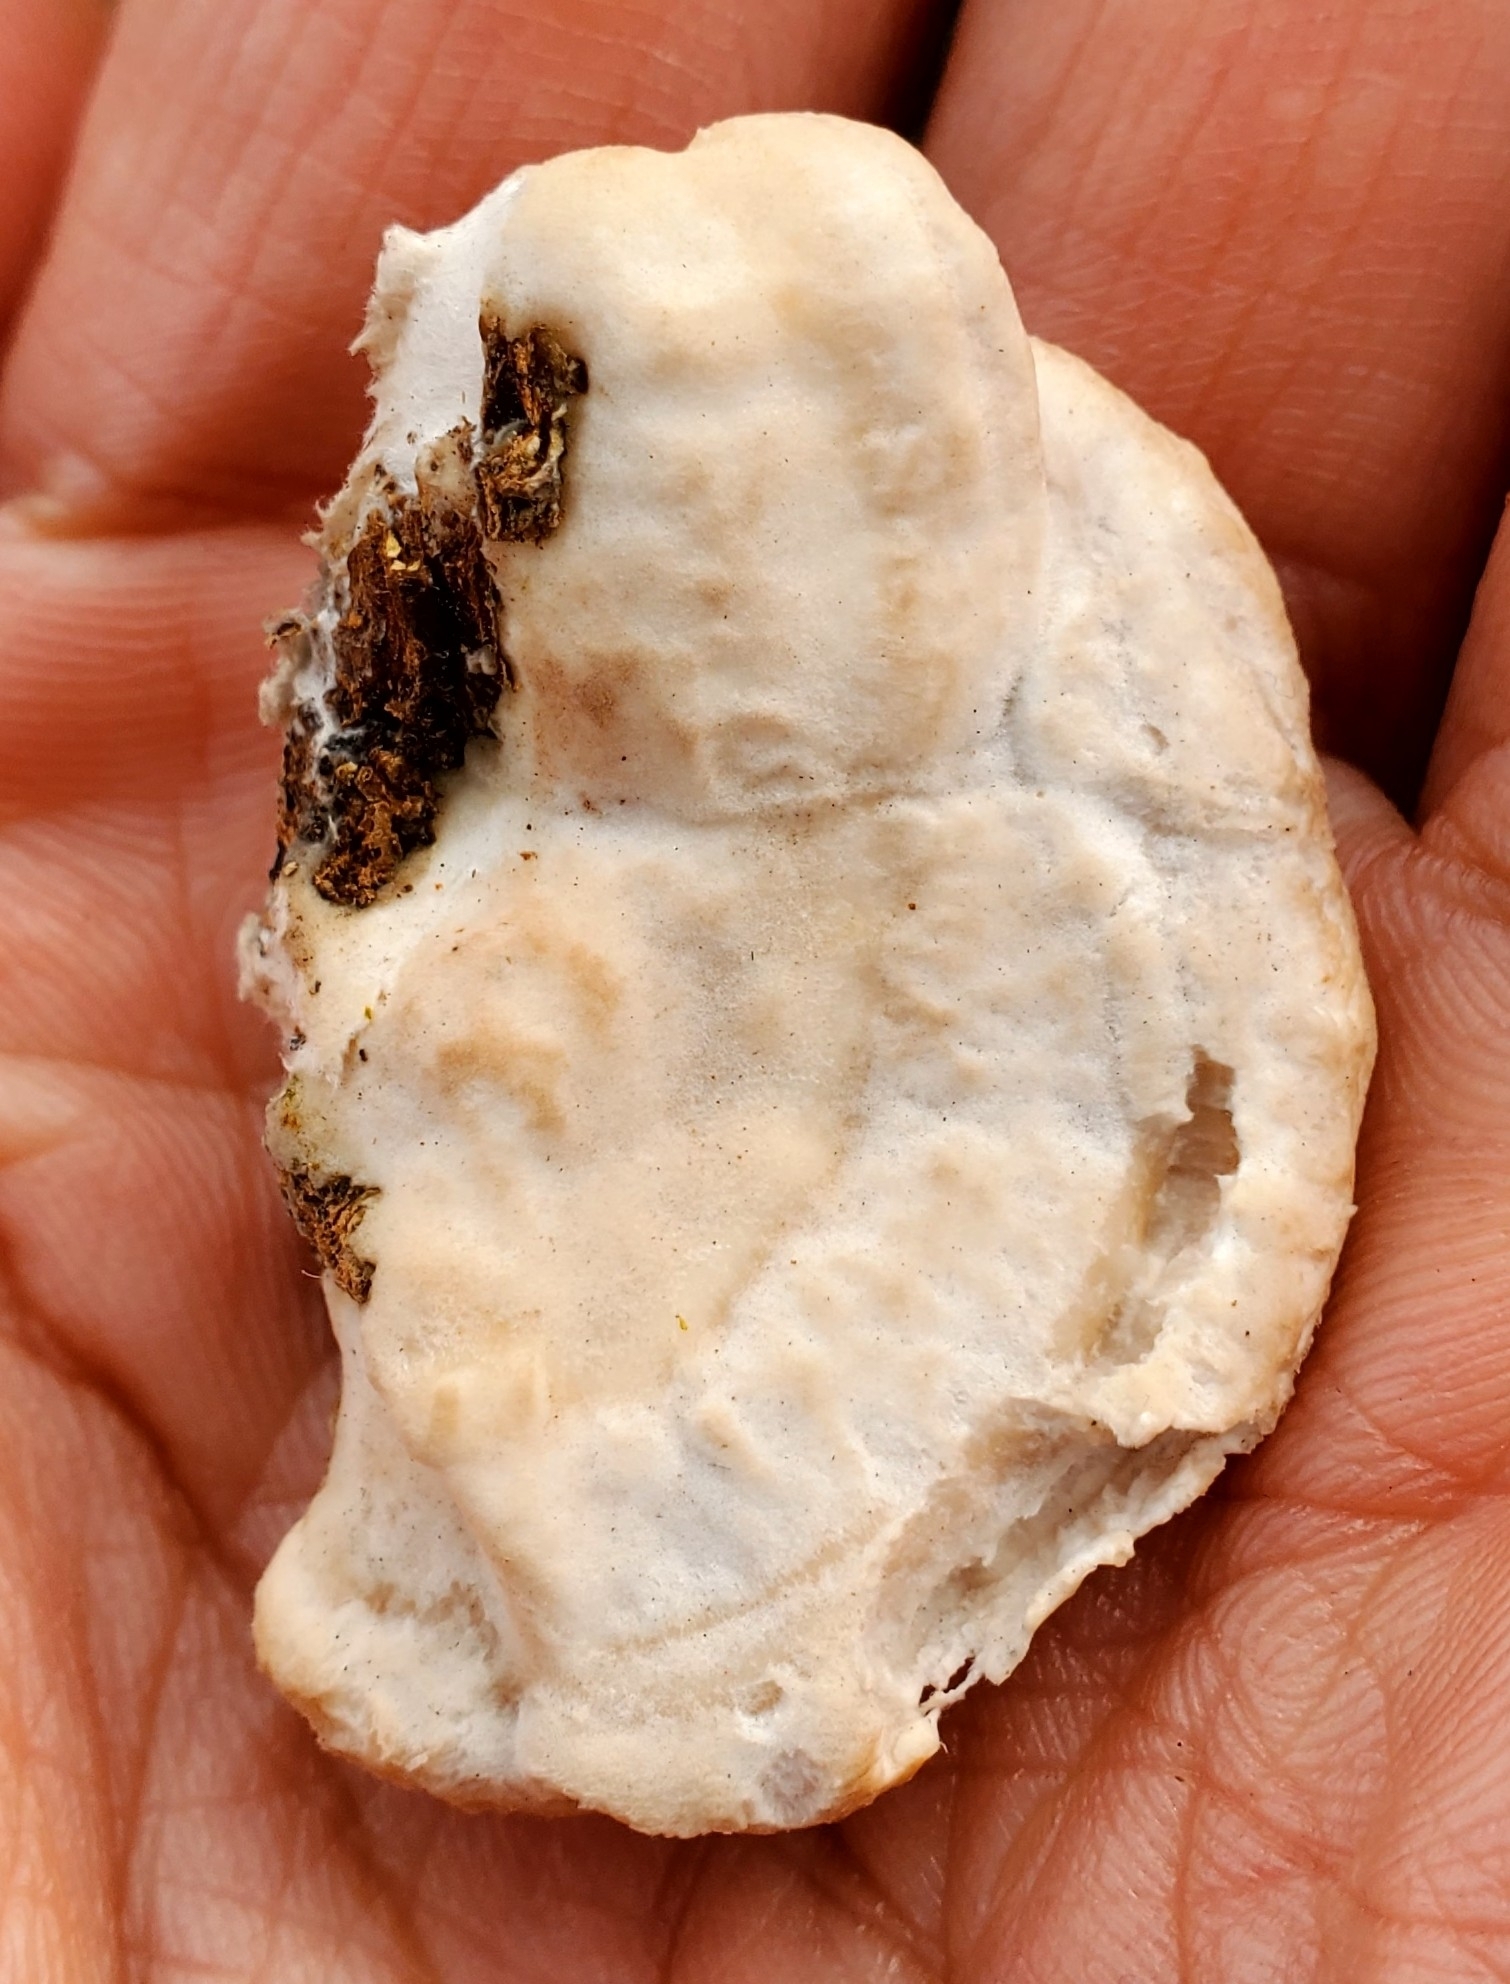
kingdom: Fungi
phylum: Basidiomycota
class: Agaricomycetes
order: Polyporales
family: Polyporaceae
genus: Trametes
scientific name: Trametes lactinea
